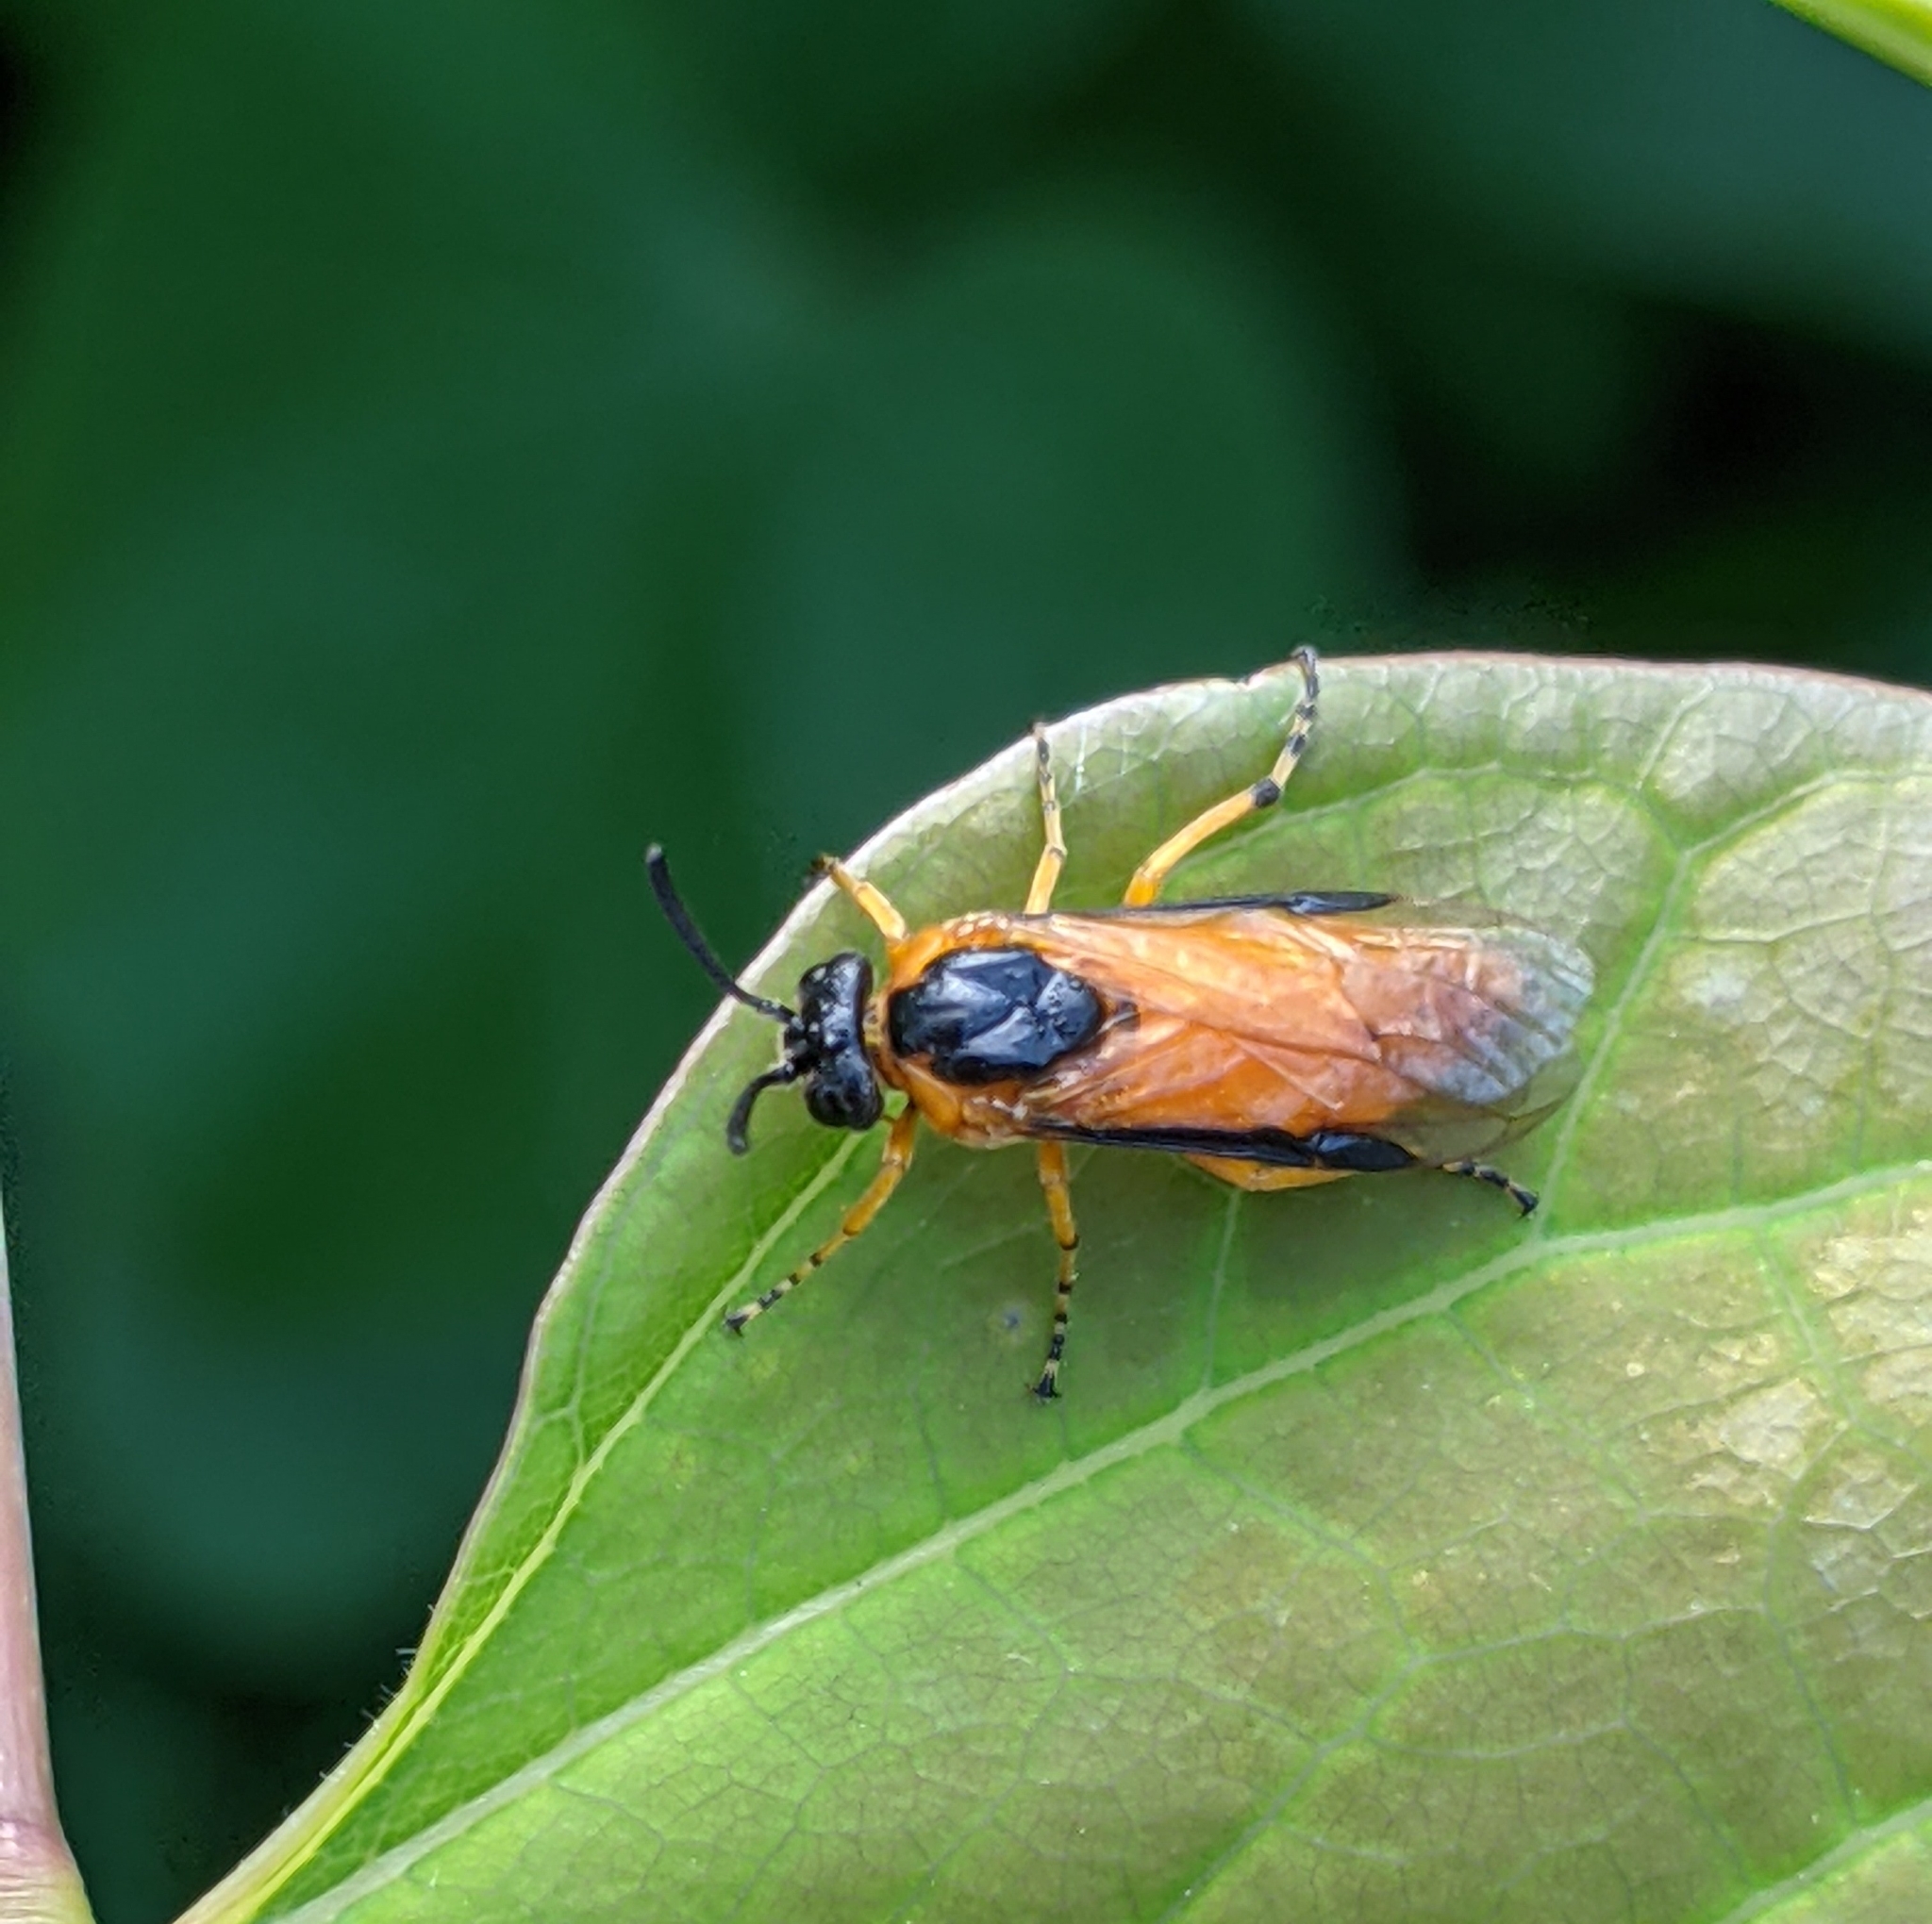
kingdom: Animalia
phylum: Arthropoda
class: Insecta
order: Hymenoptera
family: Argidae
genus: Arge
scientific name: Arge ochropus
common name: Argid sawfly
